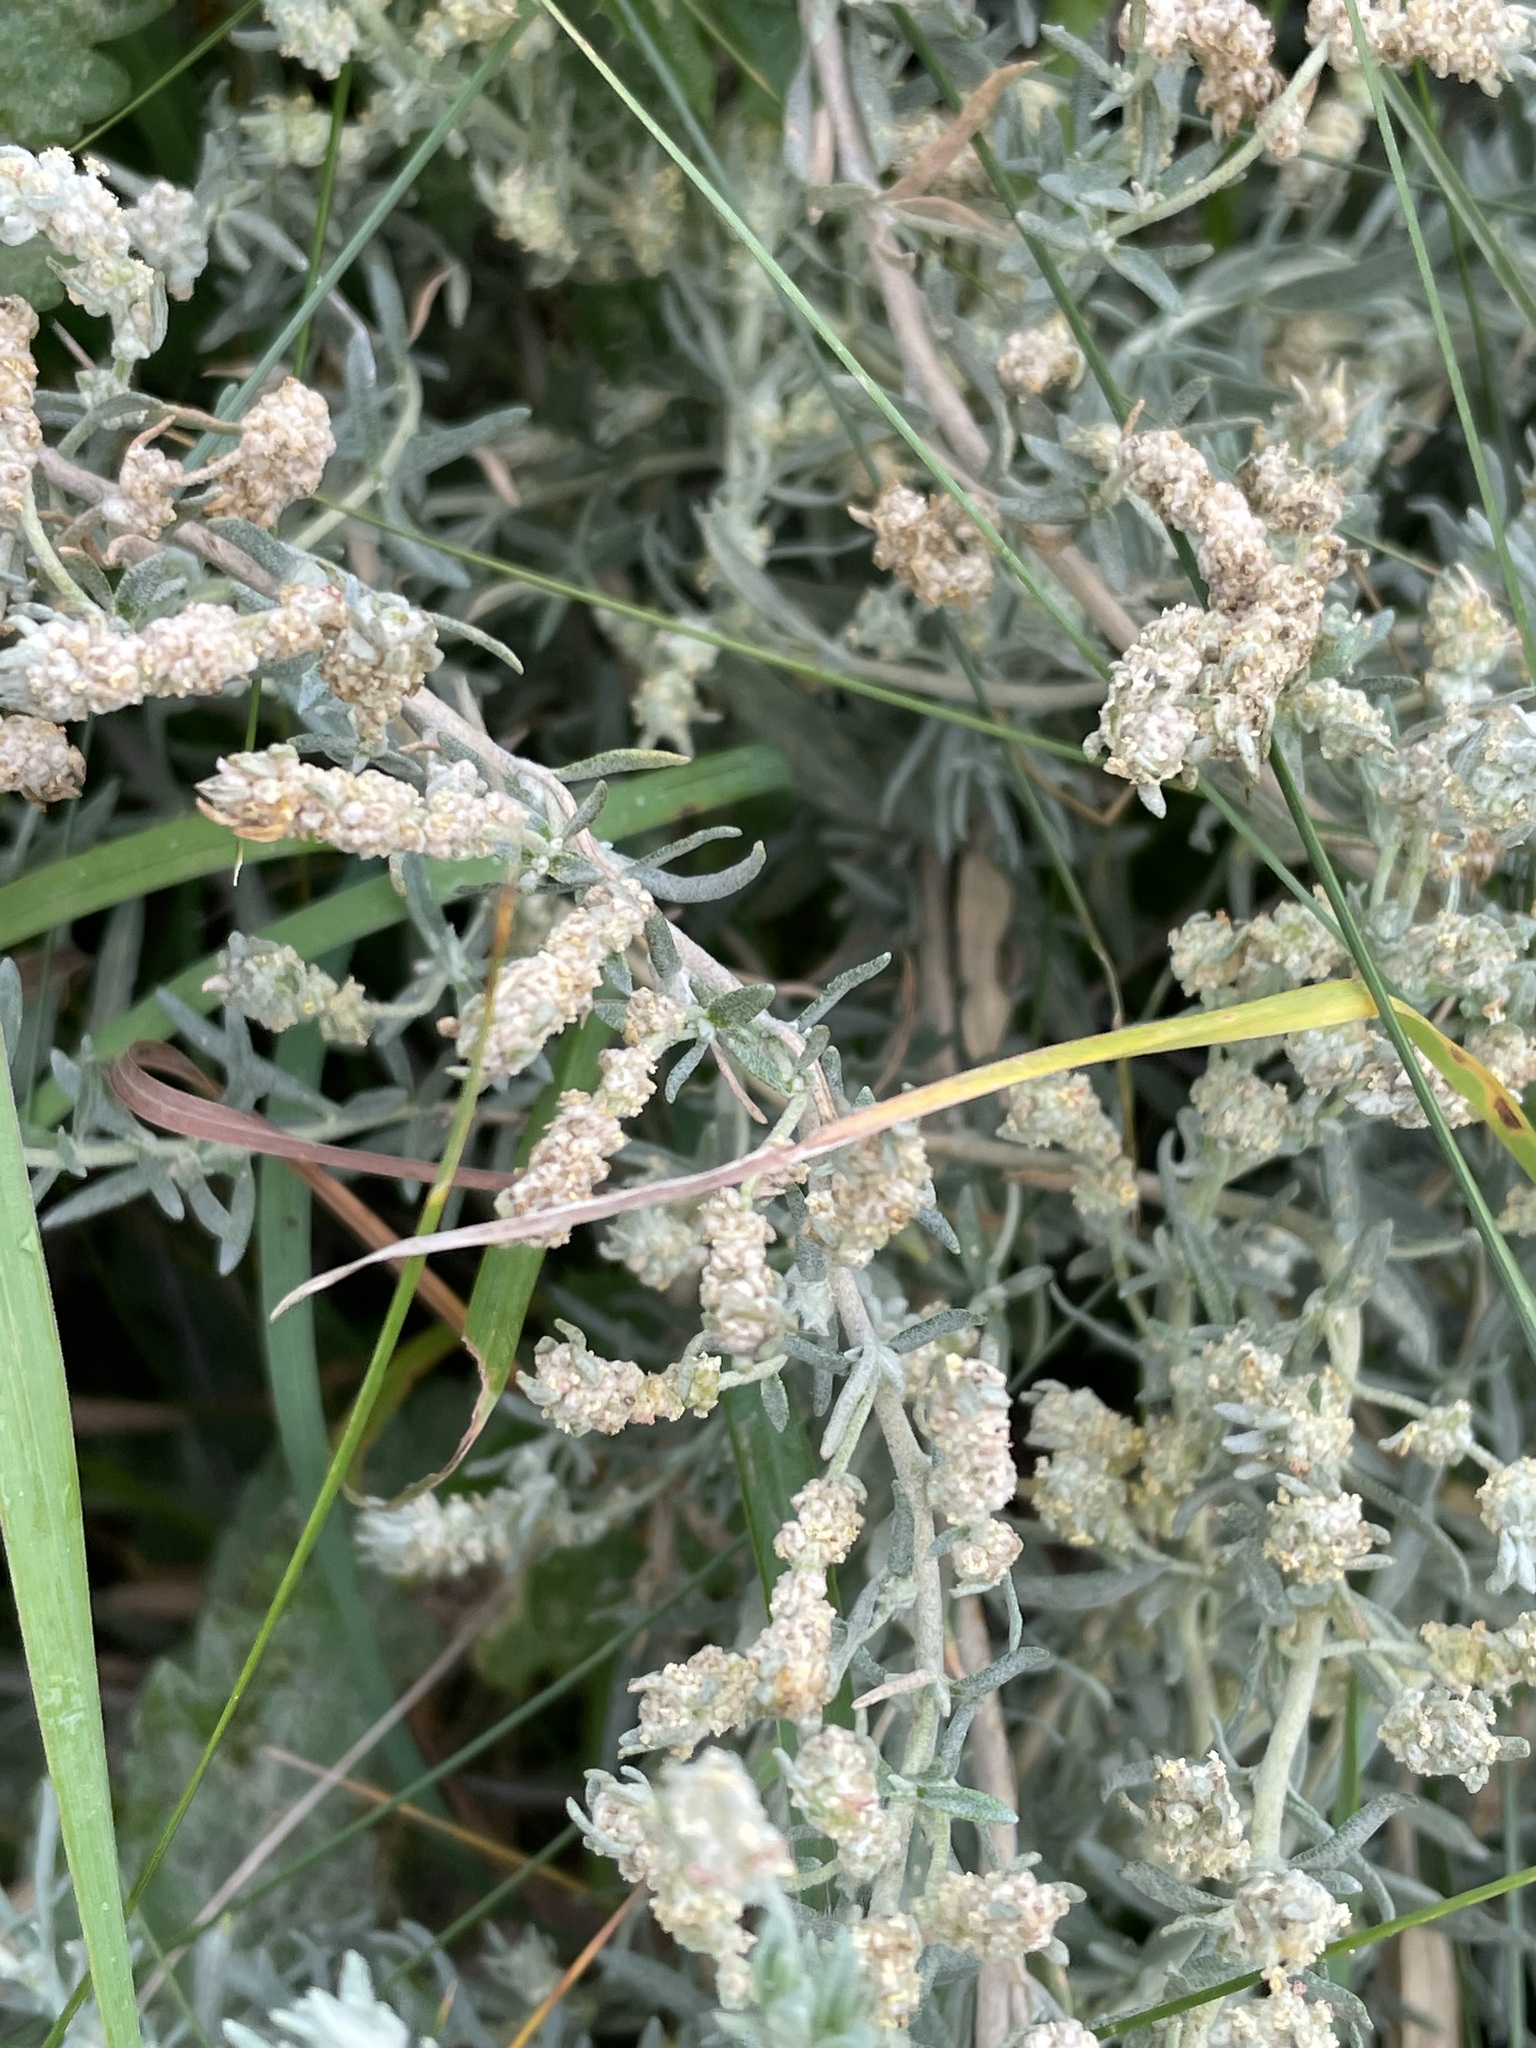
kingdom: Plantae
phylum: Tracheophyta
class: Magnoliopsida
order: Caryophyllales
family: Amaranthaceae
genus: Krascheninnikovia
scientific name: Krascheninnikovia ceratoides
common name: Pamirian winterfat
